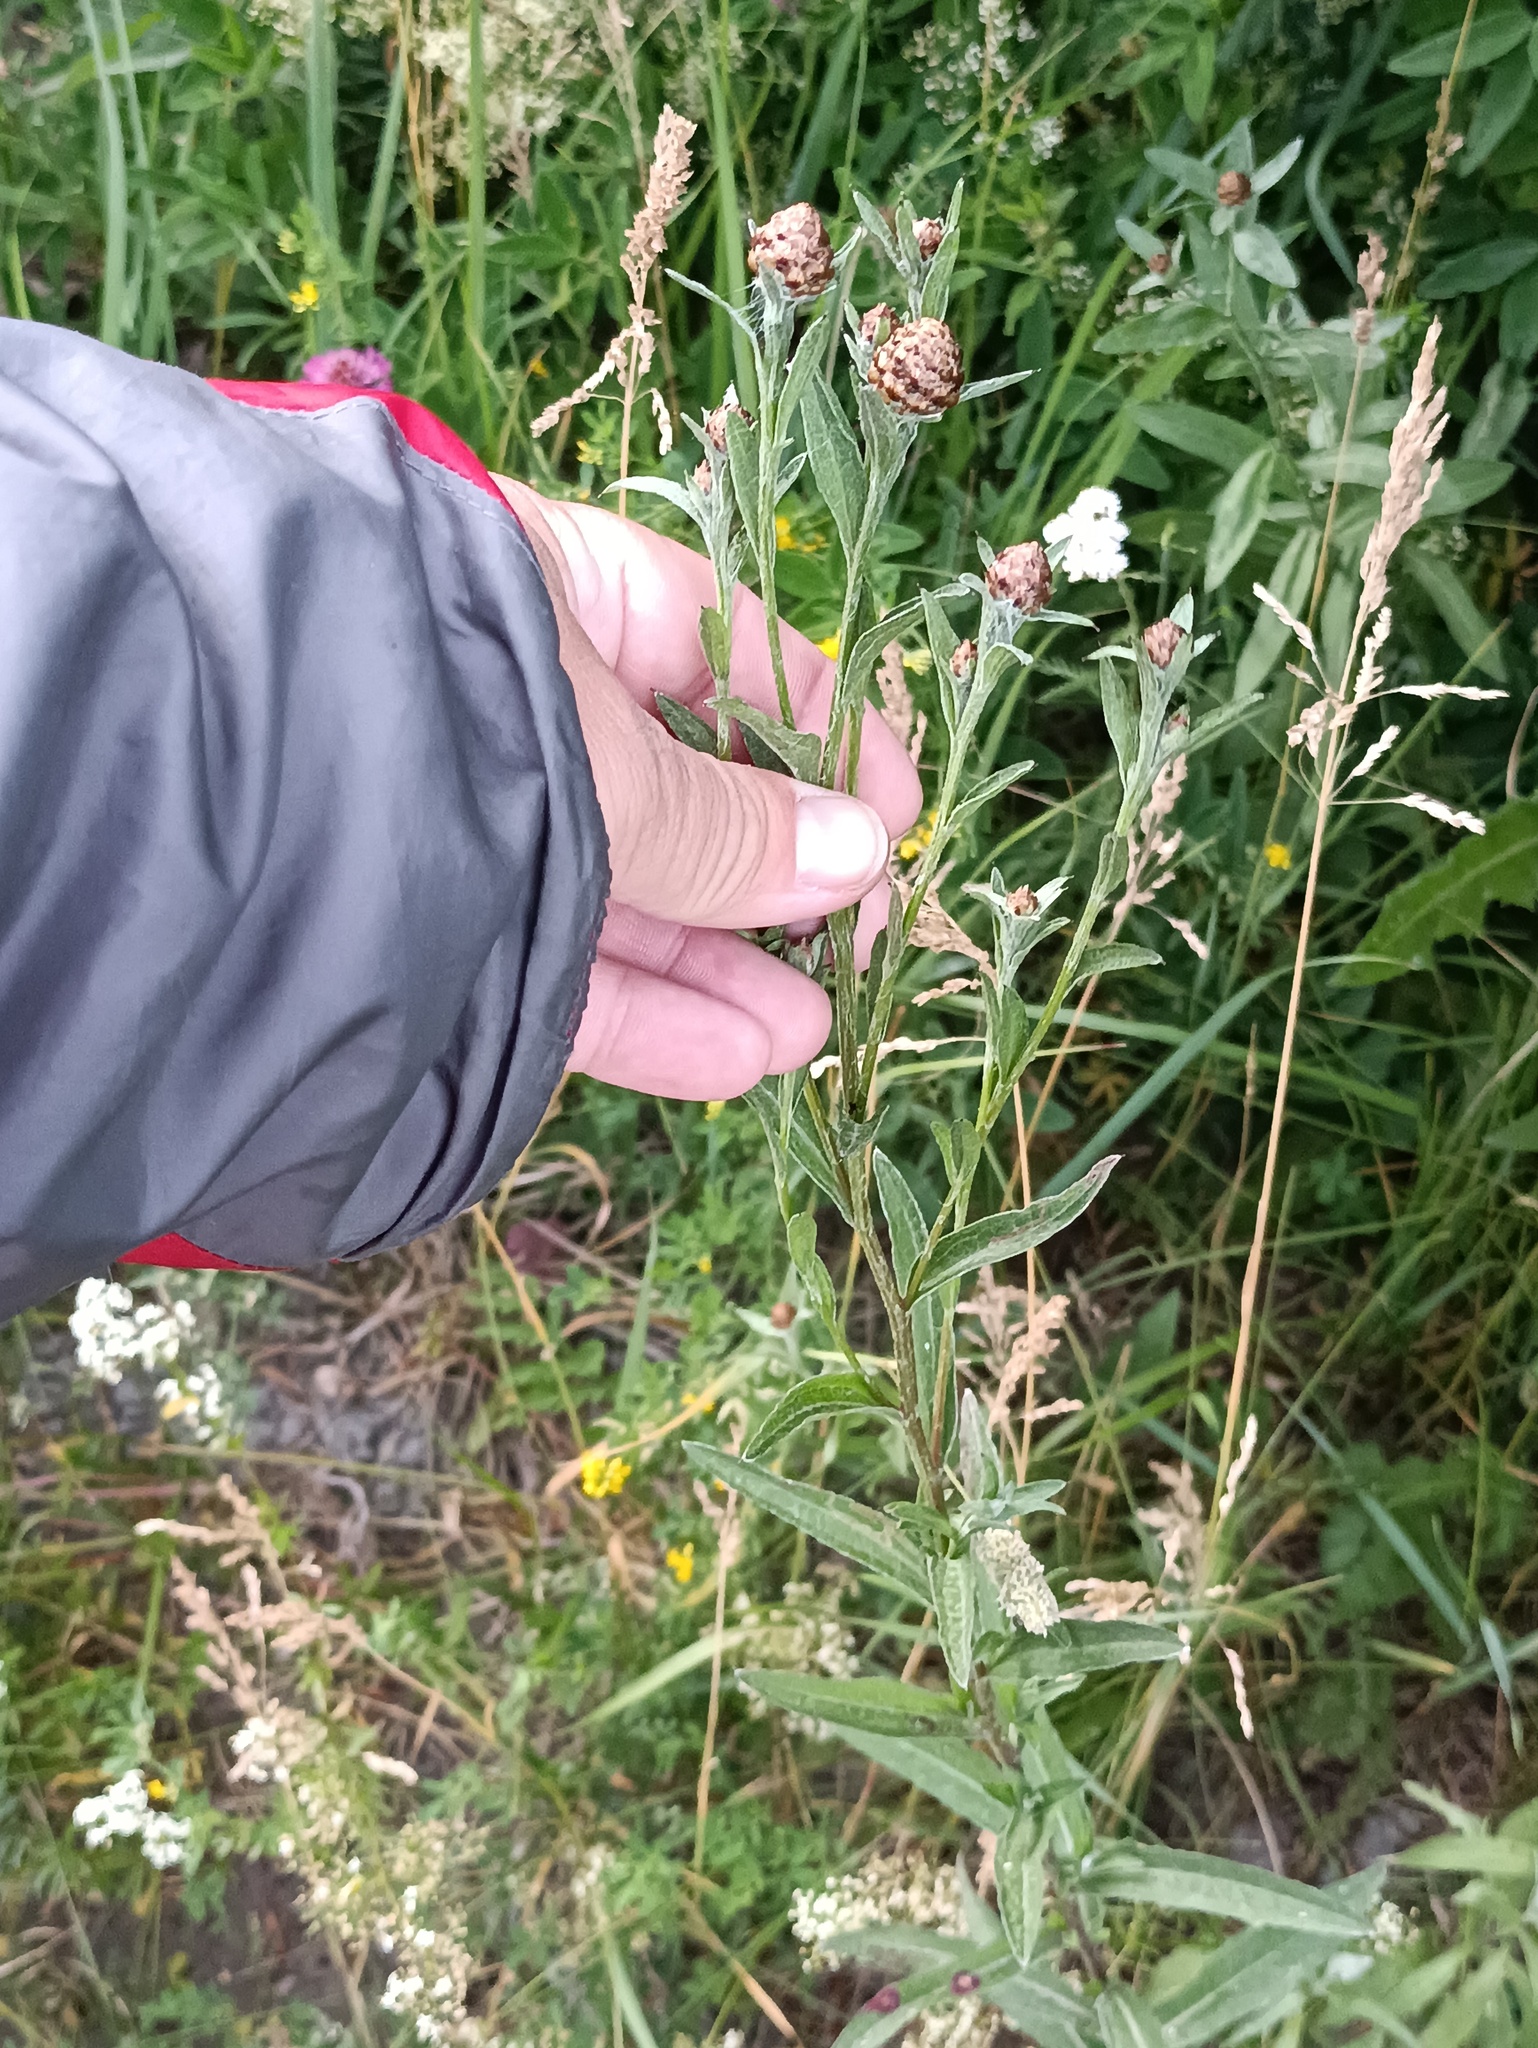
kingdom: Plantae
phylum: Tracheophyta
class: Magnoliopsida
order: Asterales
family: Asteraceae
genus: Centaurea
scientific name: Centaurea jacea
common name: Brown knapweed
